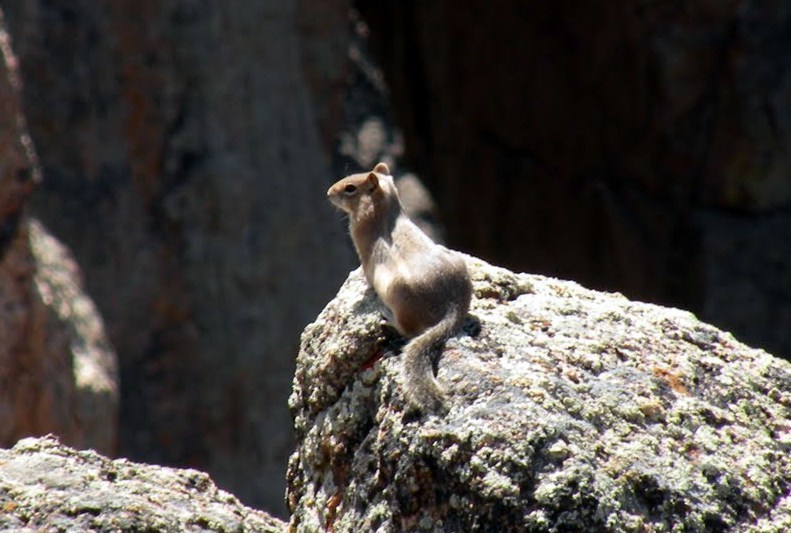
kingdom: Animalia
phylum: Chordata
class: Mammalia
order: Rodentia
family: Sciuridae
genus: Callospermophilus
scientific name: Callospermophilus lateralis
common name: Golden-mantled ground squirrel
